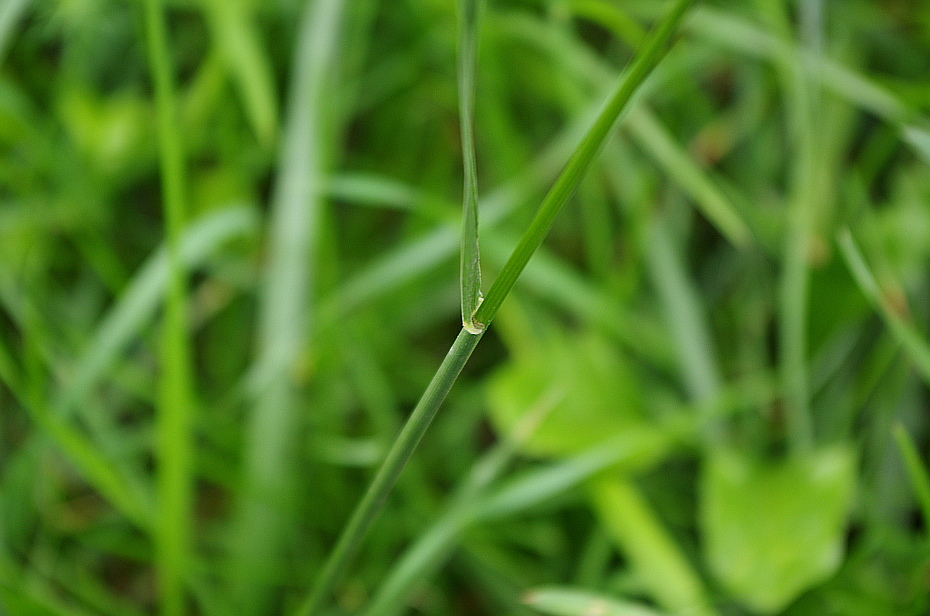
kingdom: Plantae
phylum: Tracheophyta
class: Liliopsida
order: Poales
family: Poaceae
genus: Lolium
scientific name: Lolium arundinaceum
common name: Reed fescue
